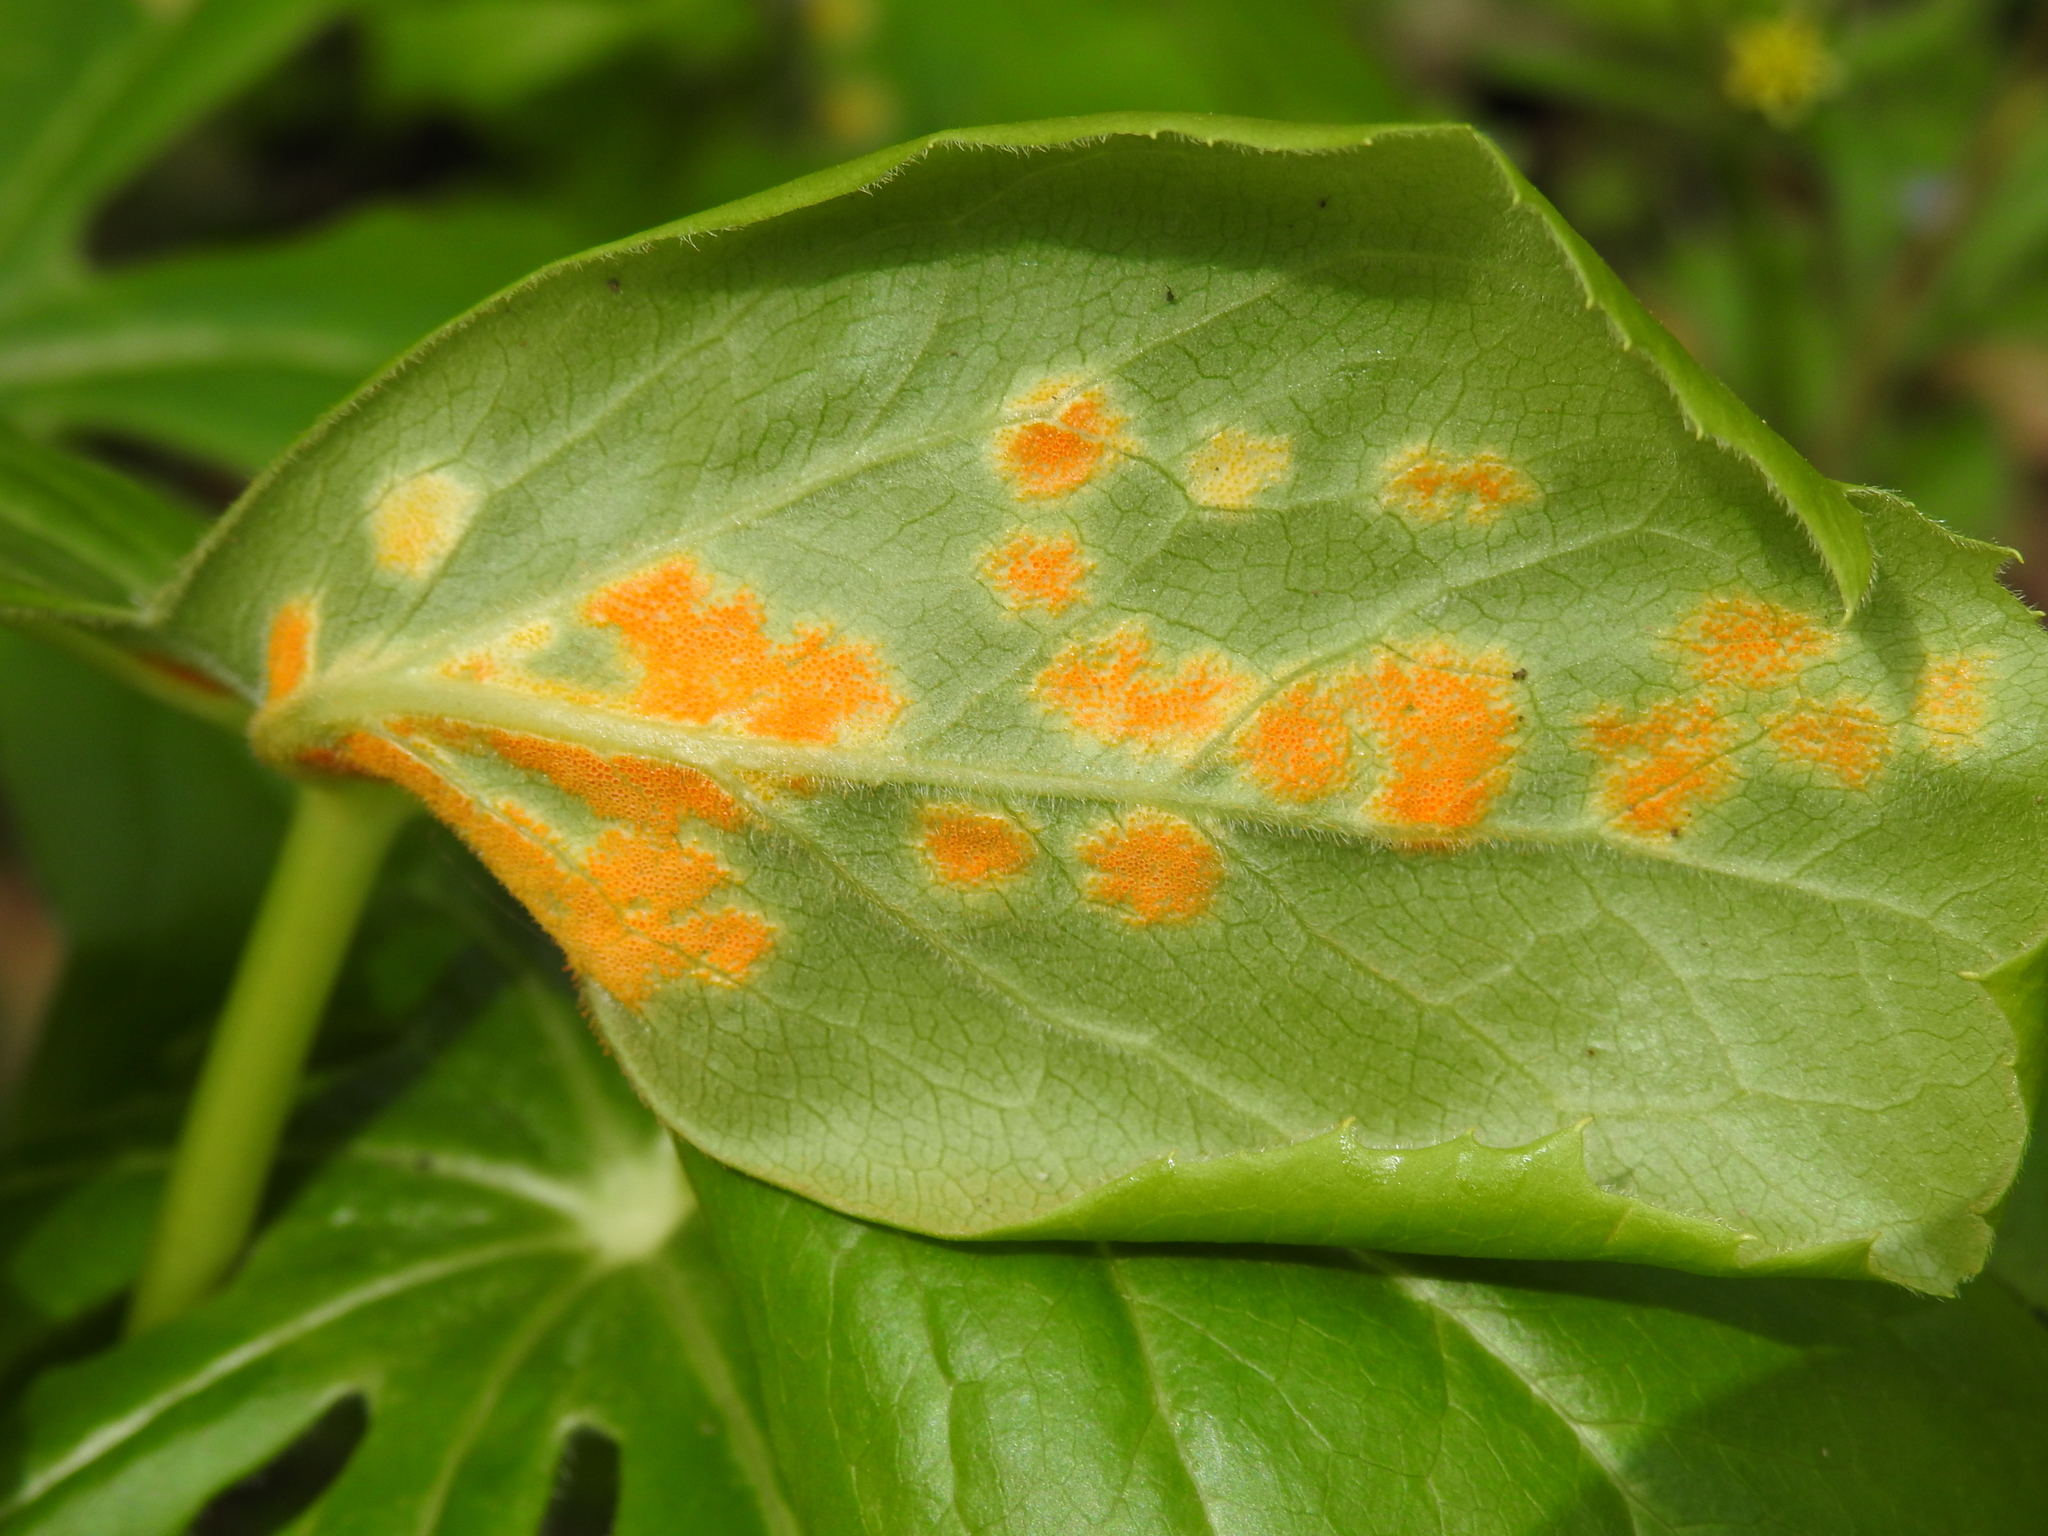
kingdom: Fungi
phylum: Basidiomycota
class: Pucciniomycetes
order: Pucciniales
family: Pucciniaceae
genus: Puccinia
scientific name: Puccinia podophylli
